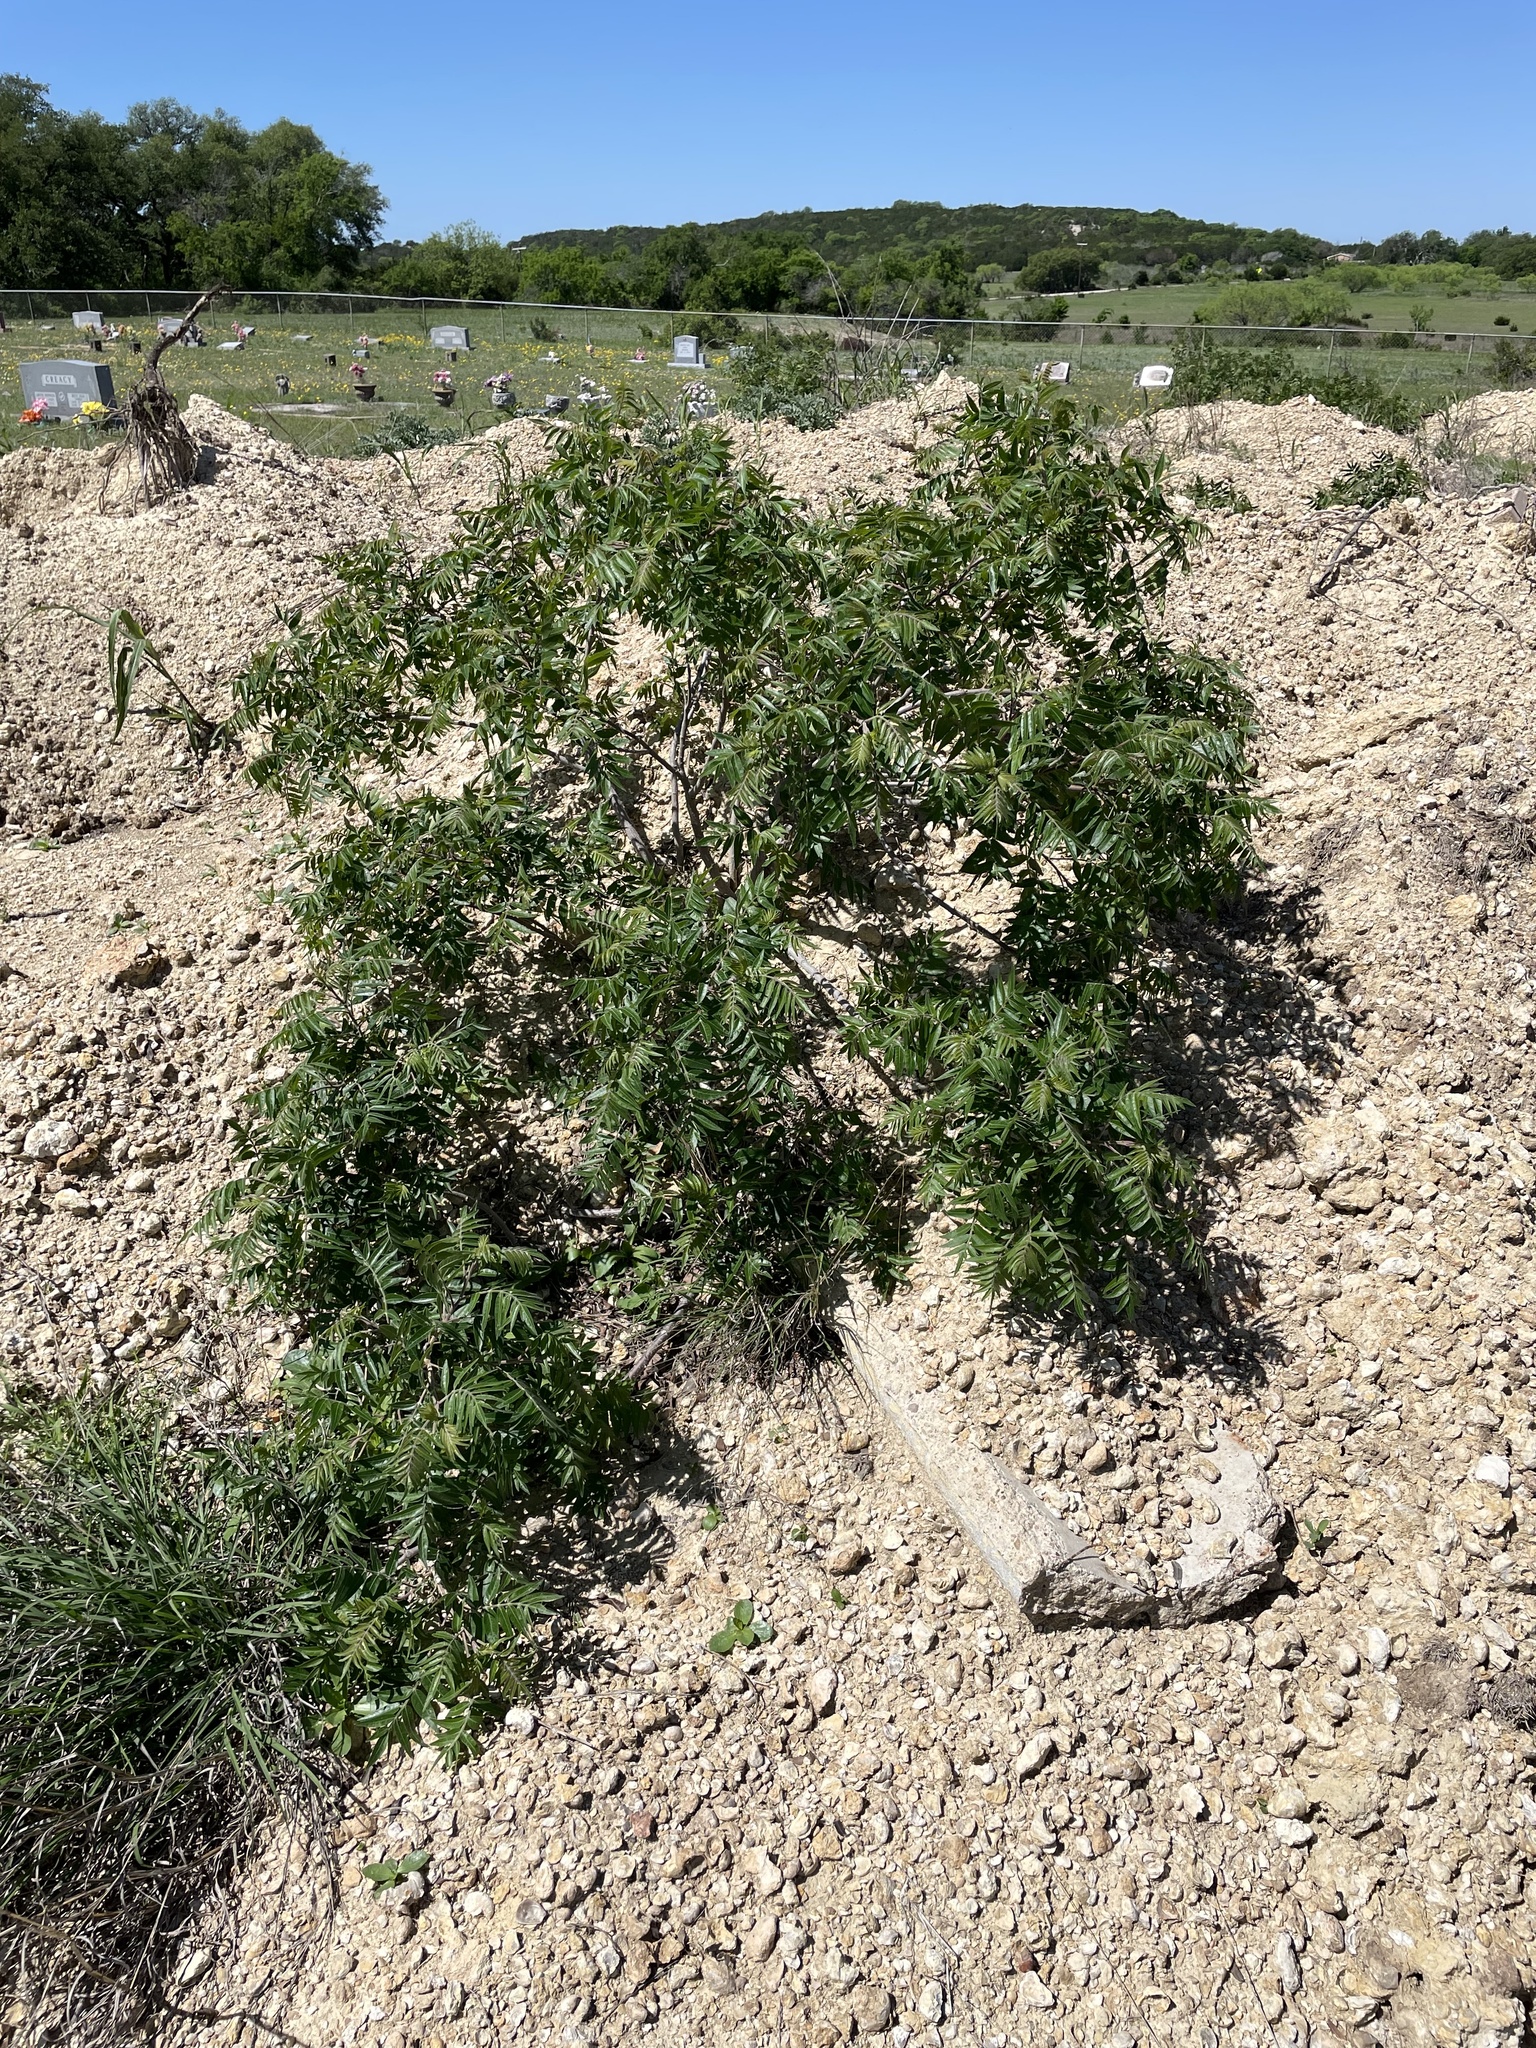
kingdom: Plantae
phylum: Tracheophyta
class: Magnoliopsida
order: Sapindales
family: Anacardiaceae
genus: Rhus
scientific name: Rhus lanceolata
